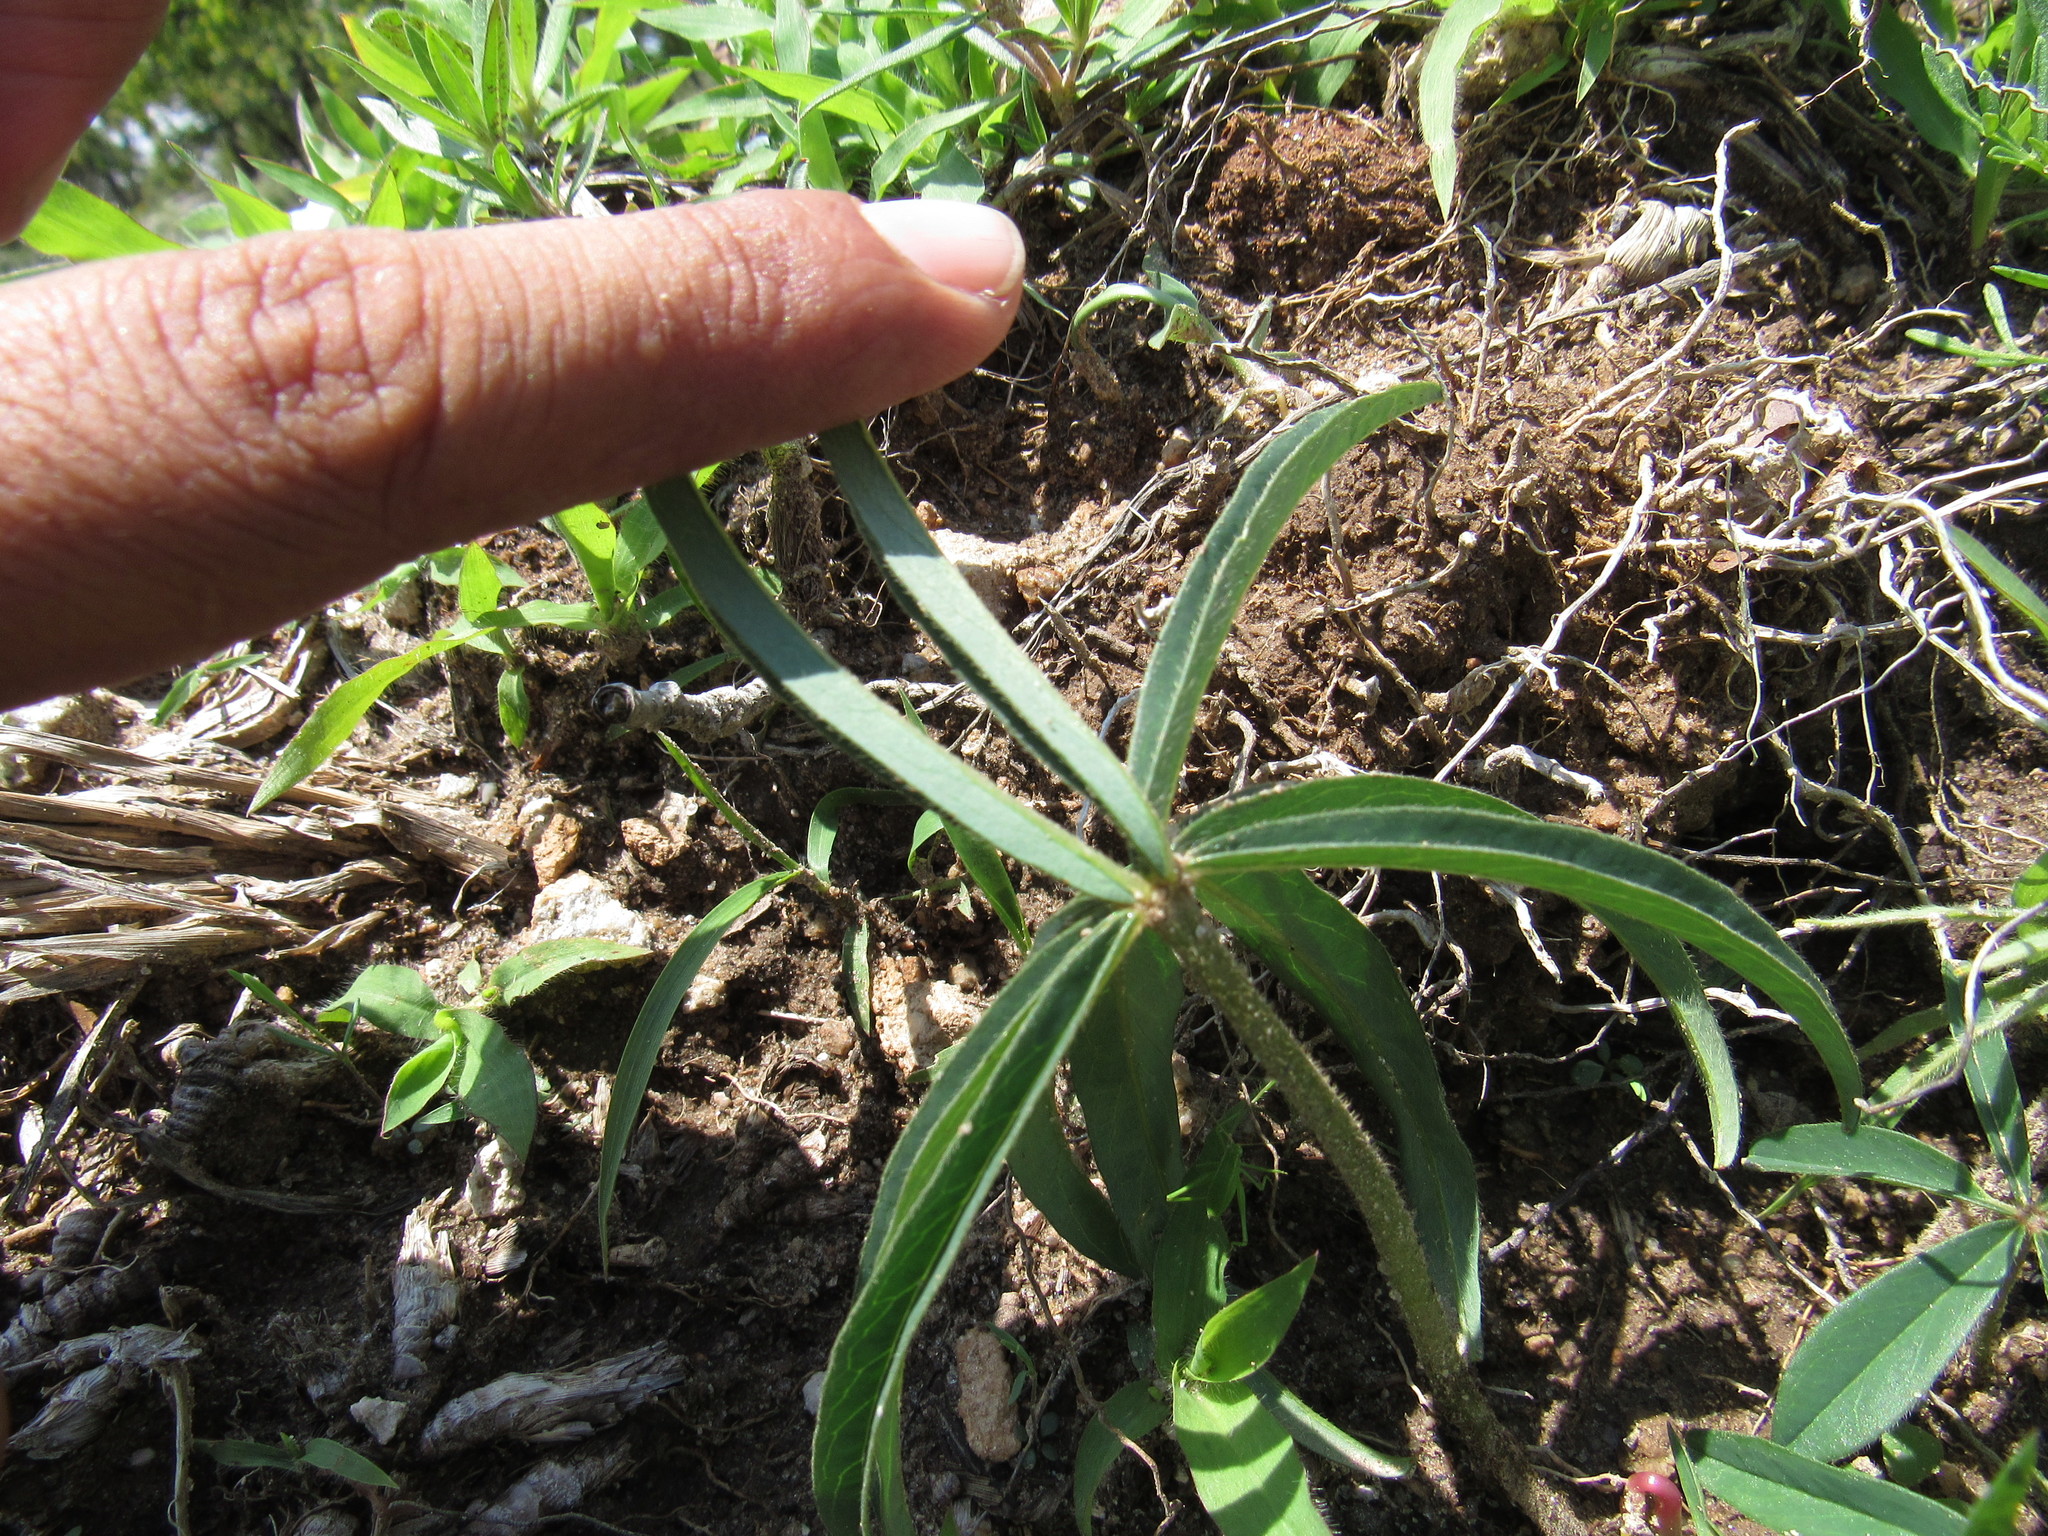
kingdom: Plantae
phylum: Tracheophyta
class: Magnoliopsida
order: Fabales
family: Fabaceae
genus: Lupinus
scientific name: Lupinus montanus
